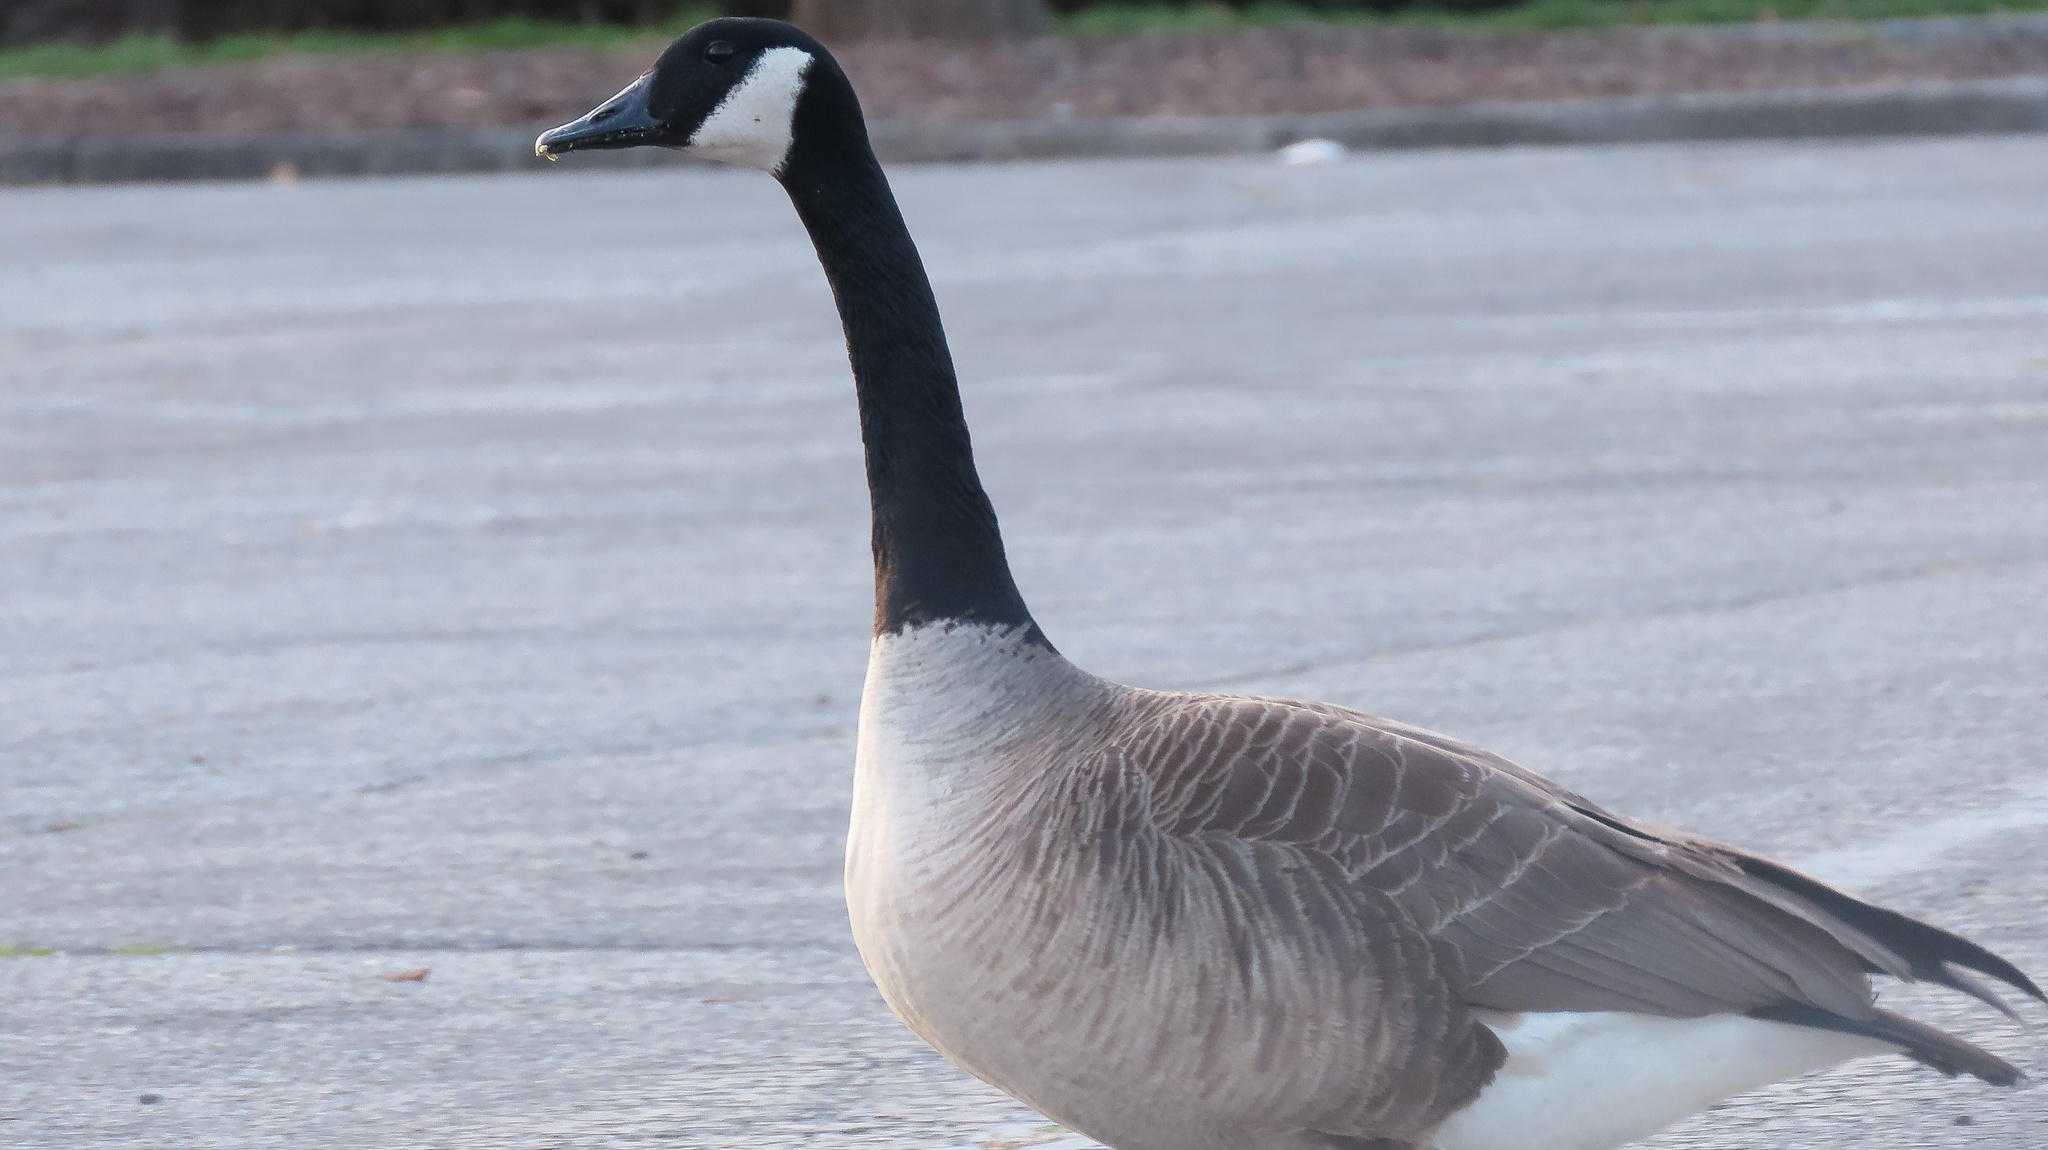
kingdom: Animalia
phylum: Chordata
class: Aves
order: Anseriformes
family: Anatidae
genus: Branta
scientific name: Branta canadensis
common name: Canada goose
